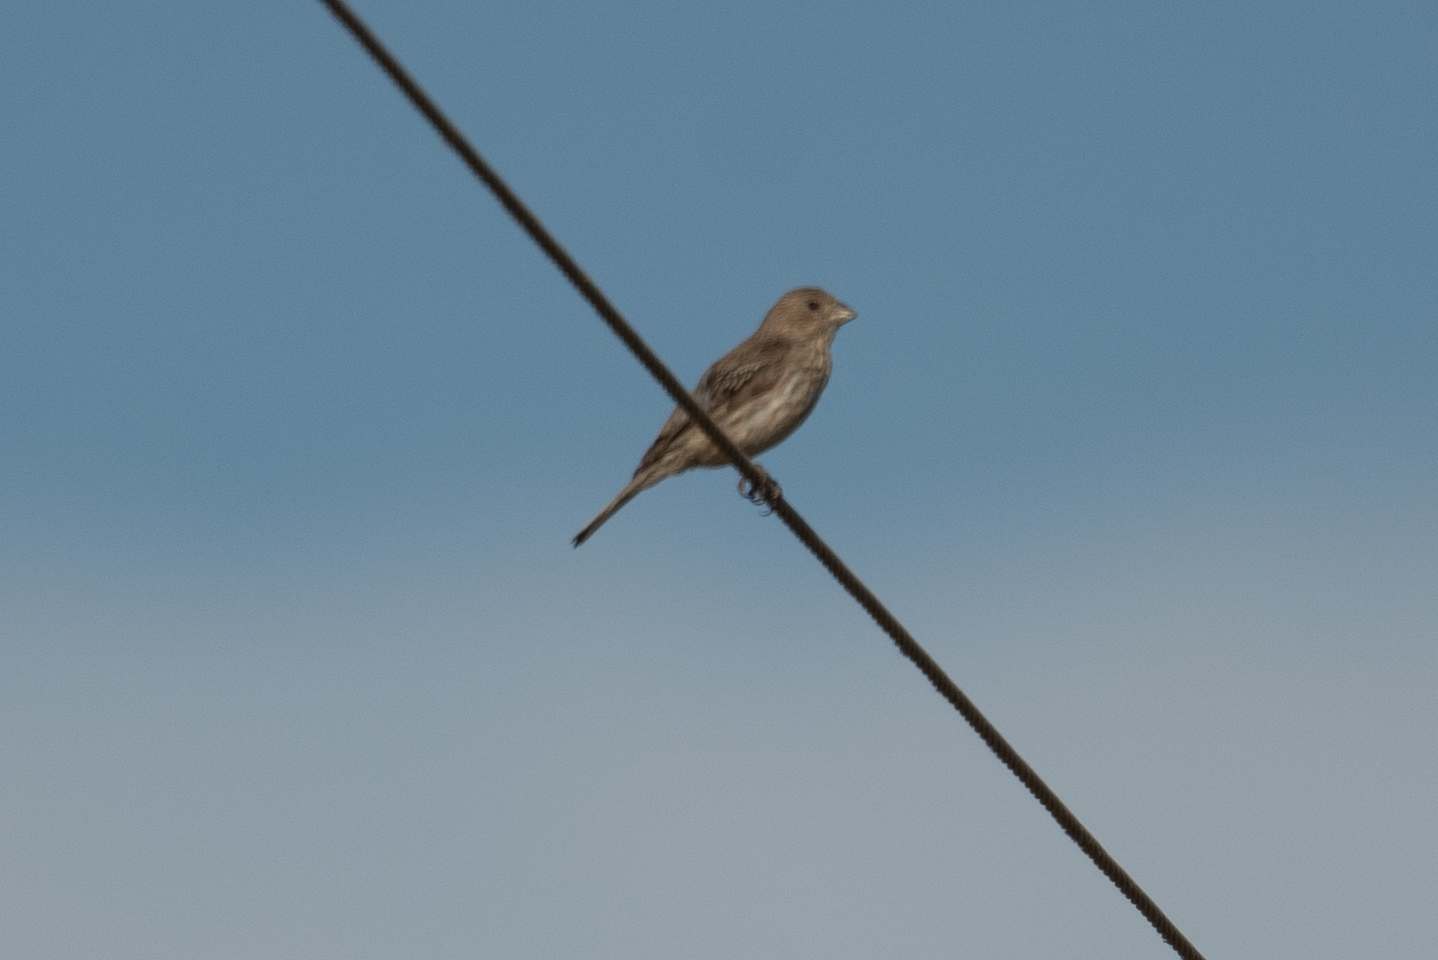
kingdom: Animalia
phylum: Chordata
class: Aves
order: Passeriformes
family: Fringillidae
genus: Haemorhous
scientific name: Haemorhous mexicanus
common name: House finch
